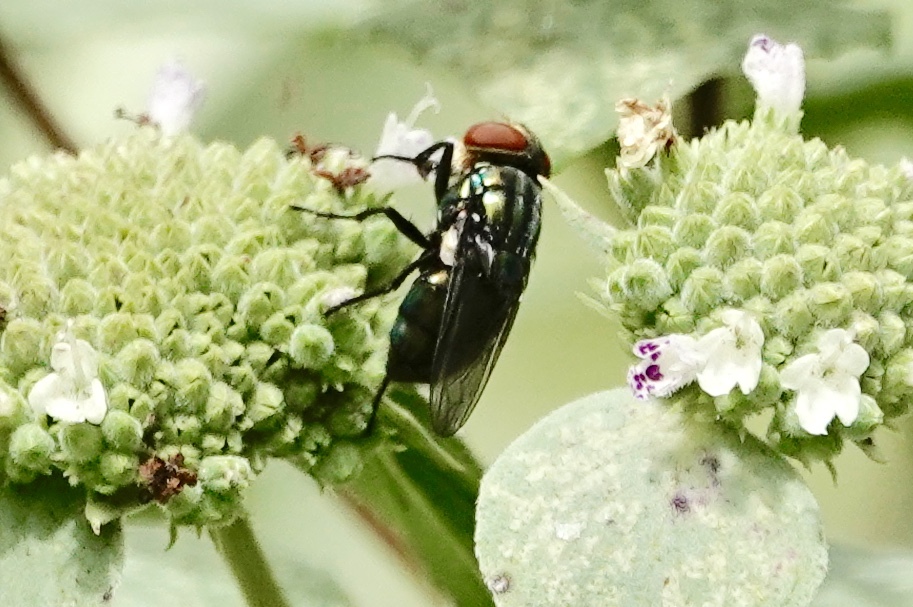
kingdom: Animalia
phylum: Arthropoda
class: Insecta
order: Diptera
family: Calliphoridae
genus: Cochliomyia
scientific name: Cochliomyia macellaria
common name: Secondary screwworm
